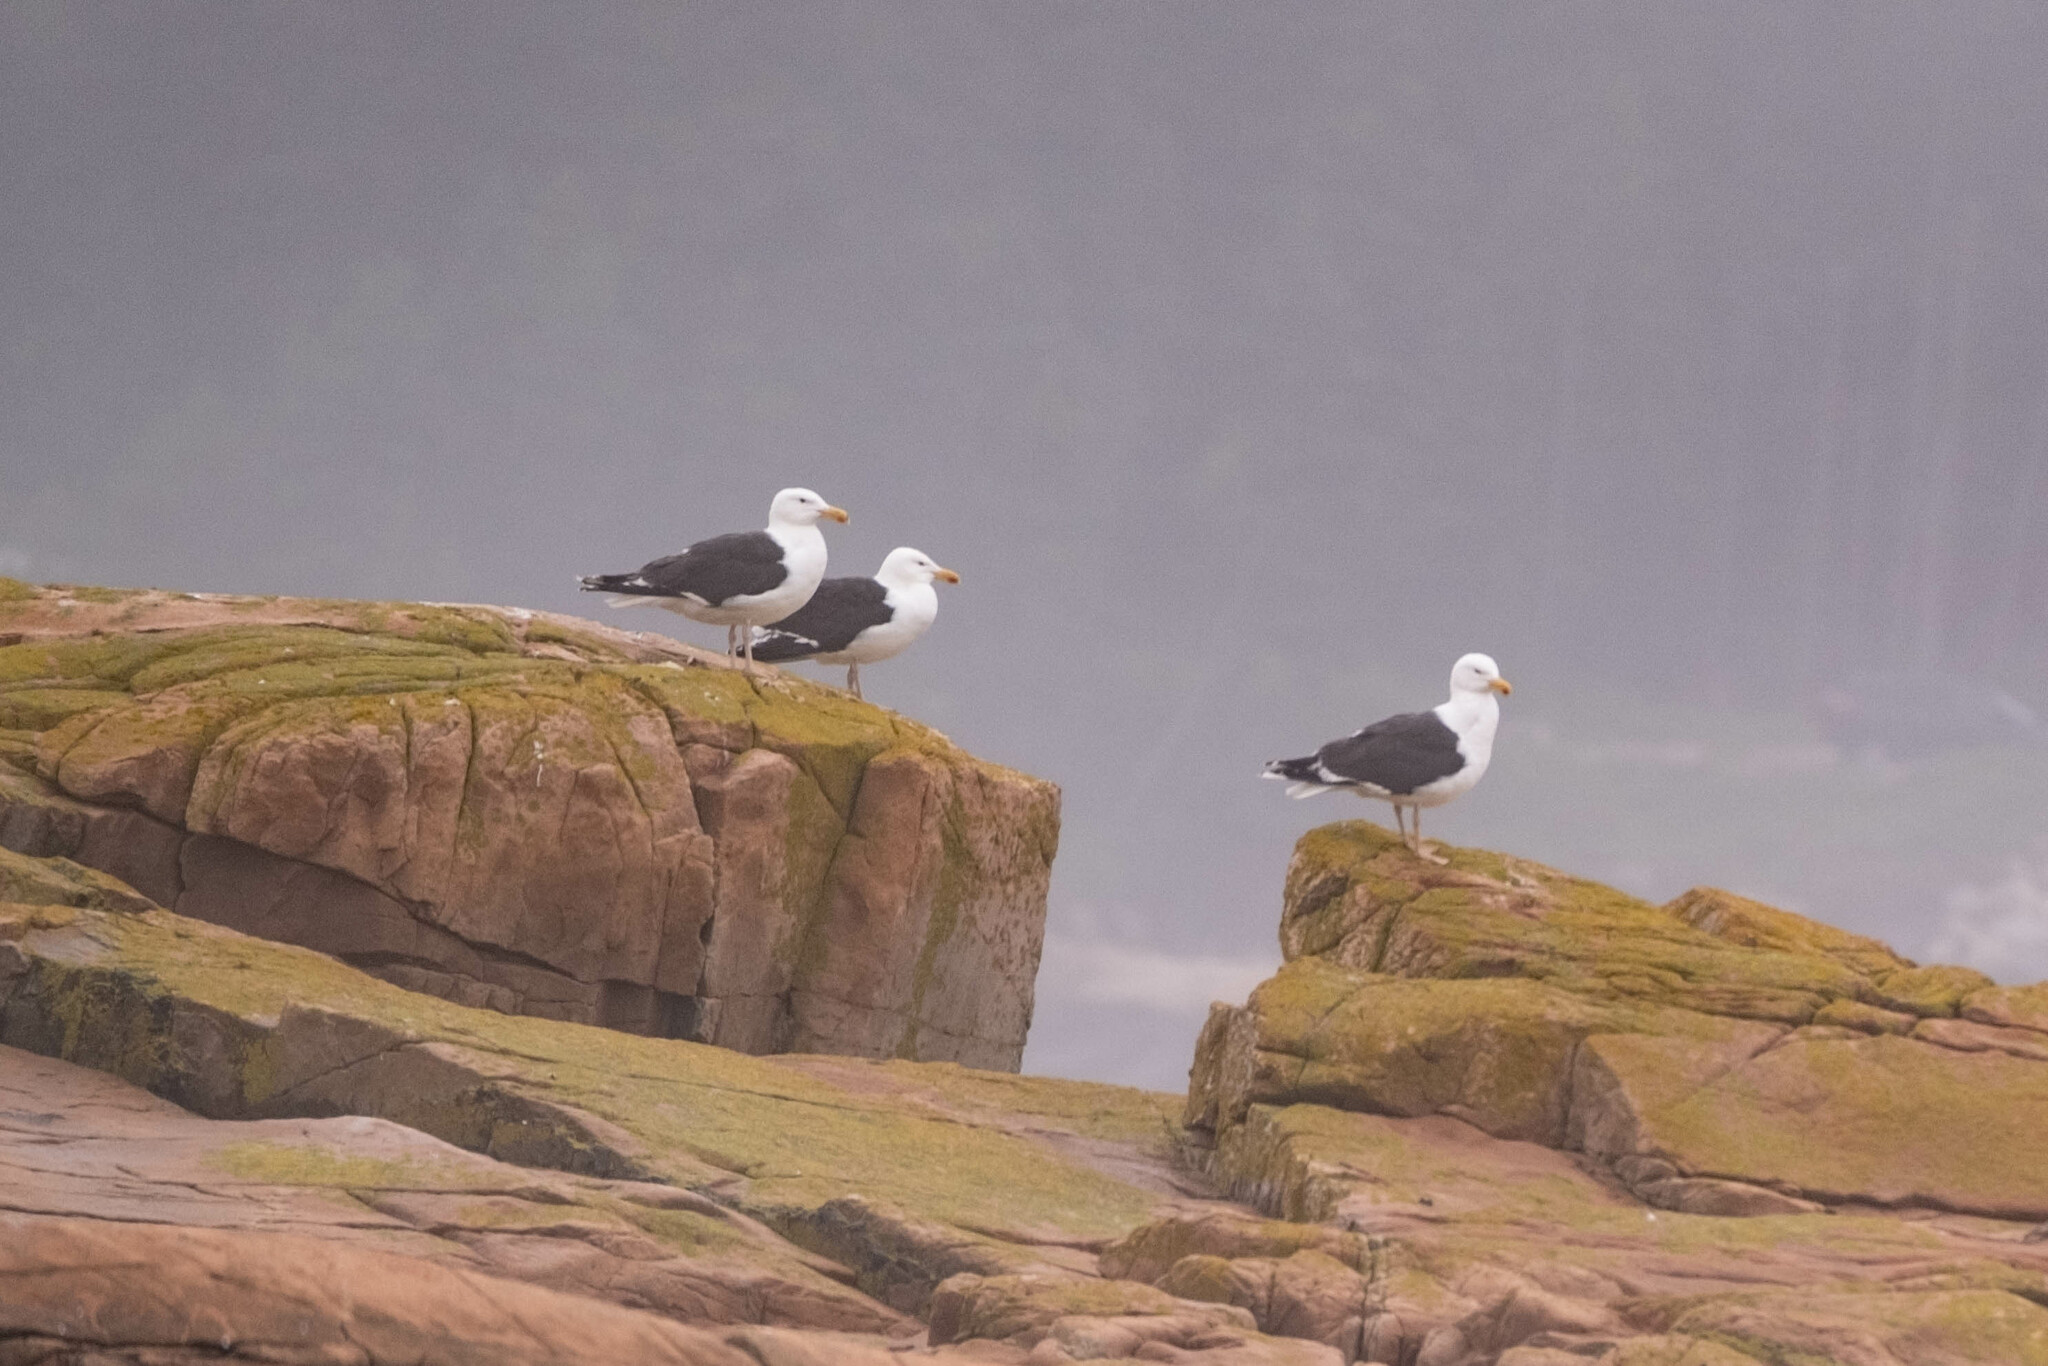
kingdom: Animalia
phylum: Chordata
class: Aves
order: Charadriiformes
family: Laridae
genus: Larus
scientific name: Larus marinus
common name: Great black-backed gull
